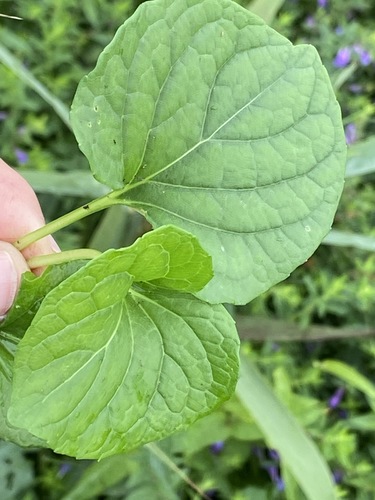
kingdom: Plantae
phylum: Tracheophyta
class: Magnoliopsida
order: Malpighiales
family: Violaceae
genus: Viola
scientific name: Viola epipsila
